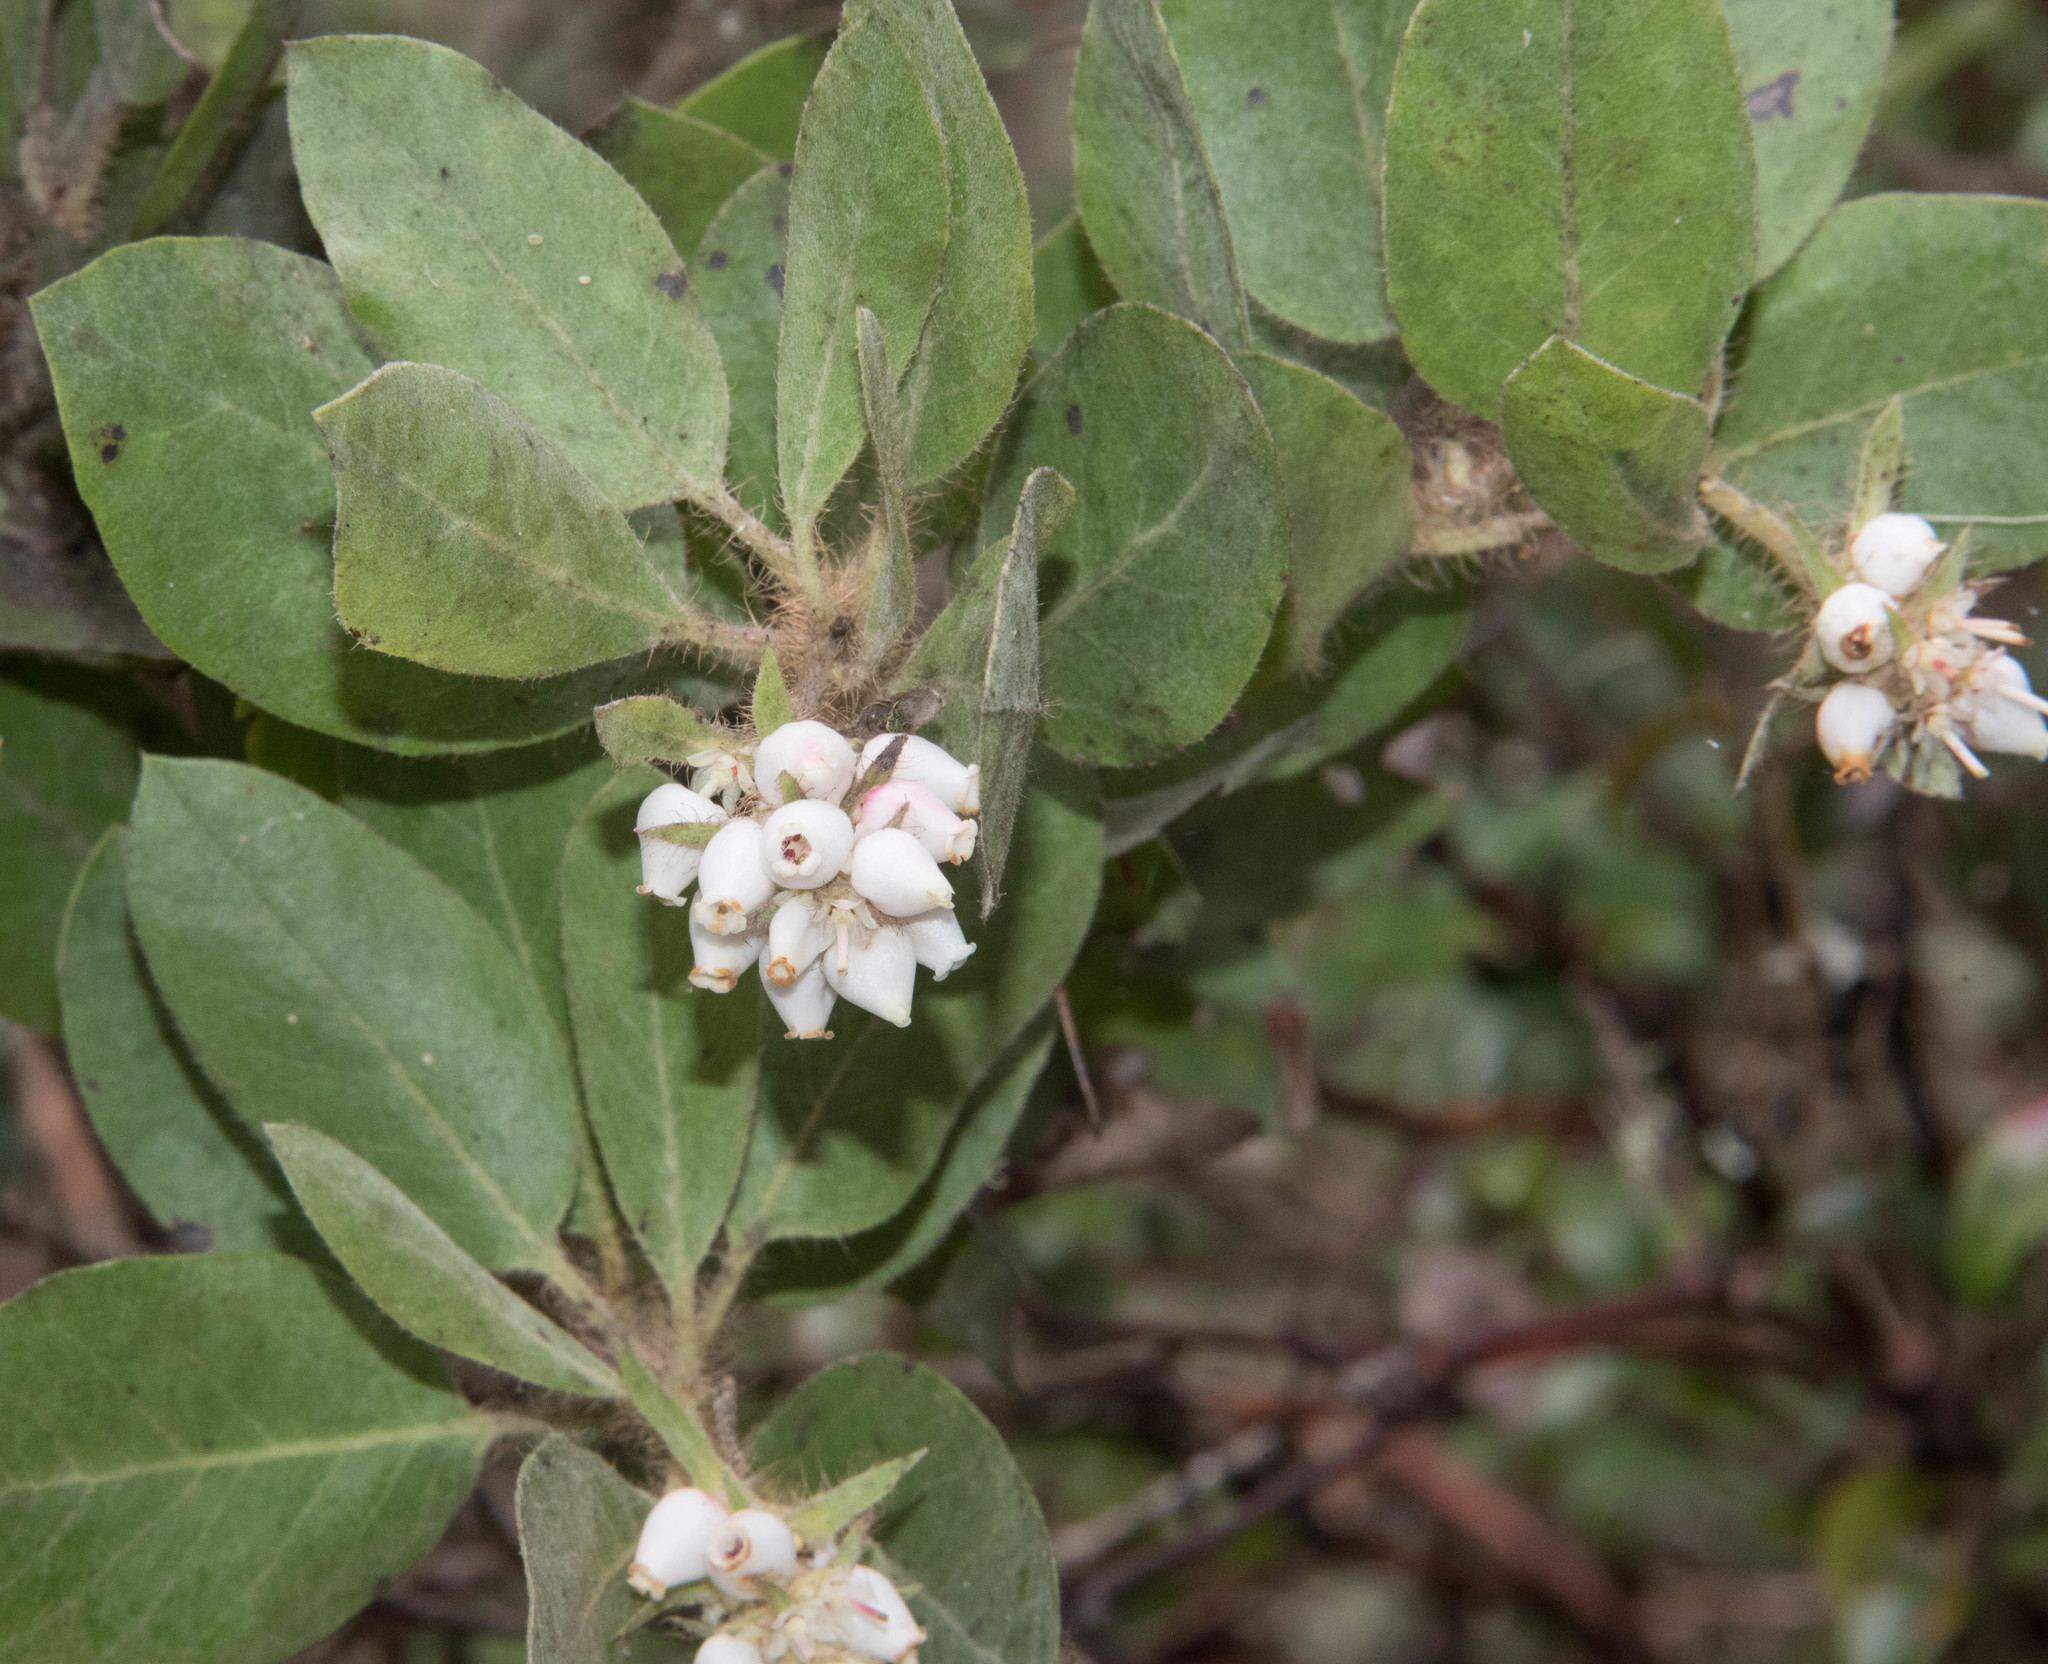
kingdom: Plantae
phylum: Tracheophyta
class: Magnoliopsida
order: Ericales
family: Ericaceae
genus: Arctostaphylos
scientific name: Arctostaphylos columbiana
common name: Bristly bearberry
